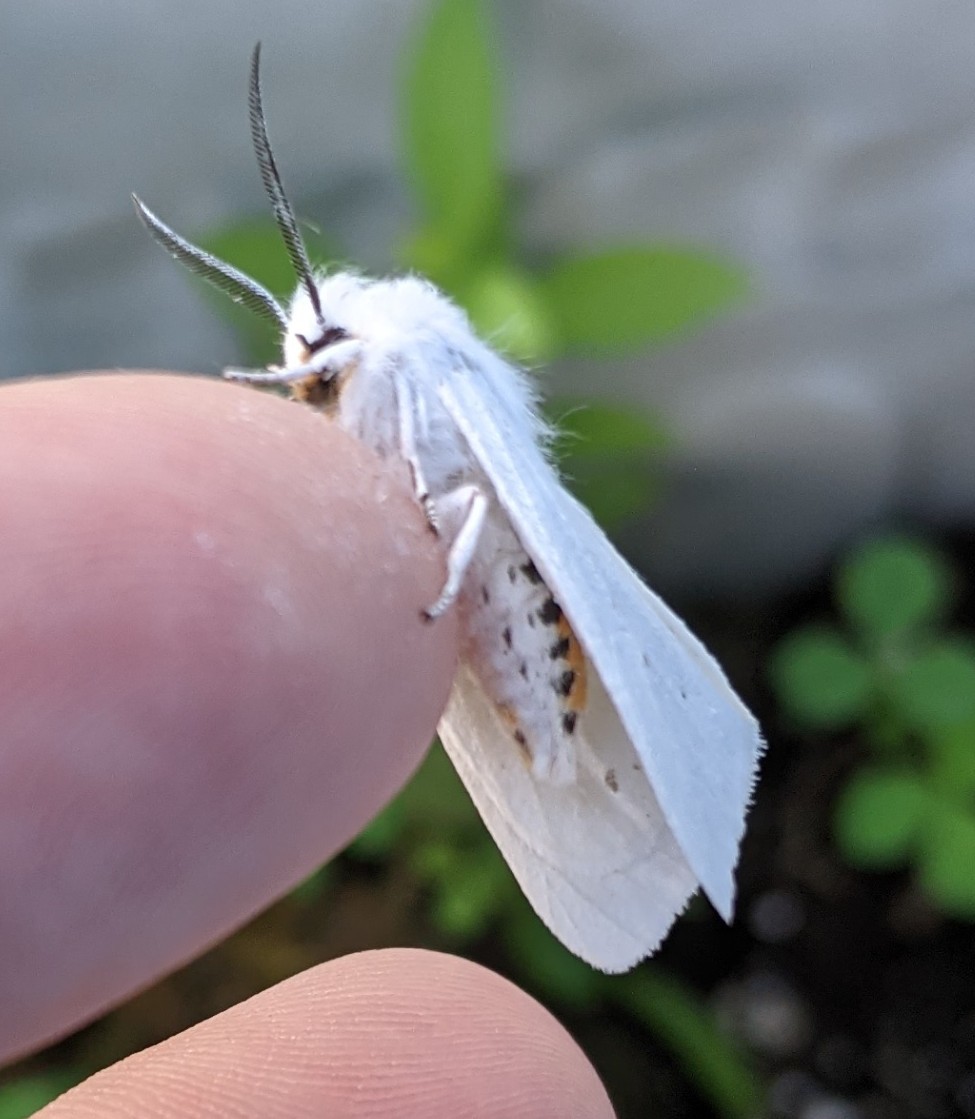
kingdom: Animalia
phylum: Arthropoda
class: Insecta
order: Lepidoptera
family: Erebidae
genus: Spilosoma
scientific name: Spilosoma virginica
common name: Virginia tiger moth
